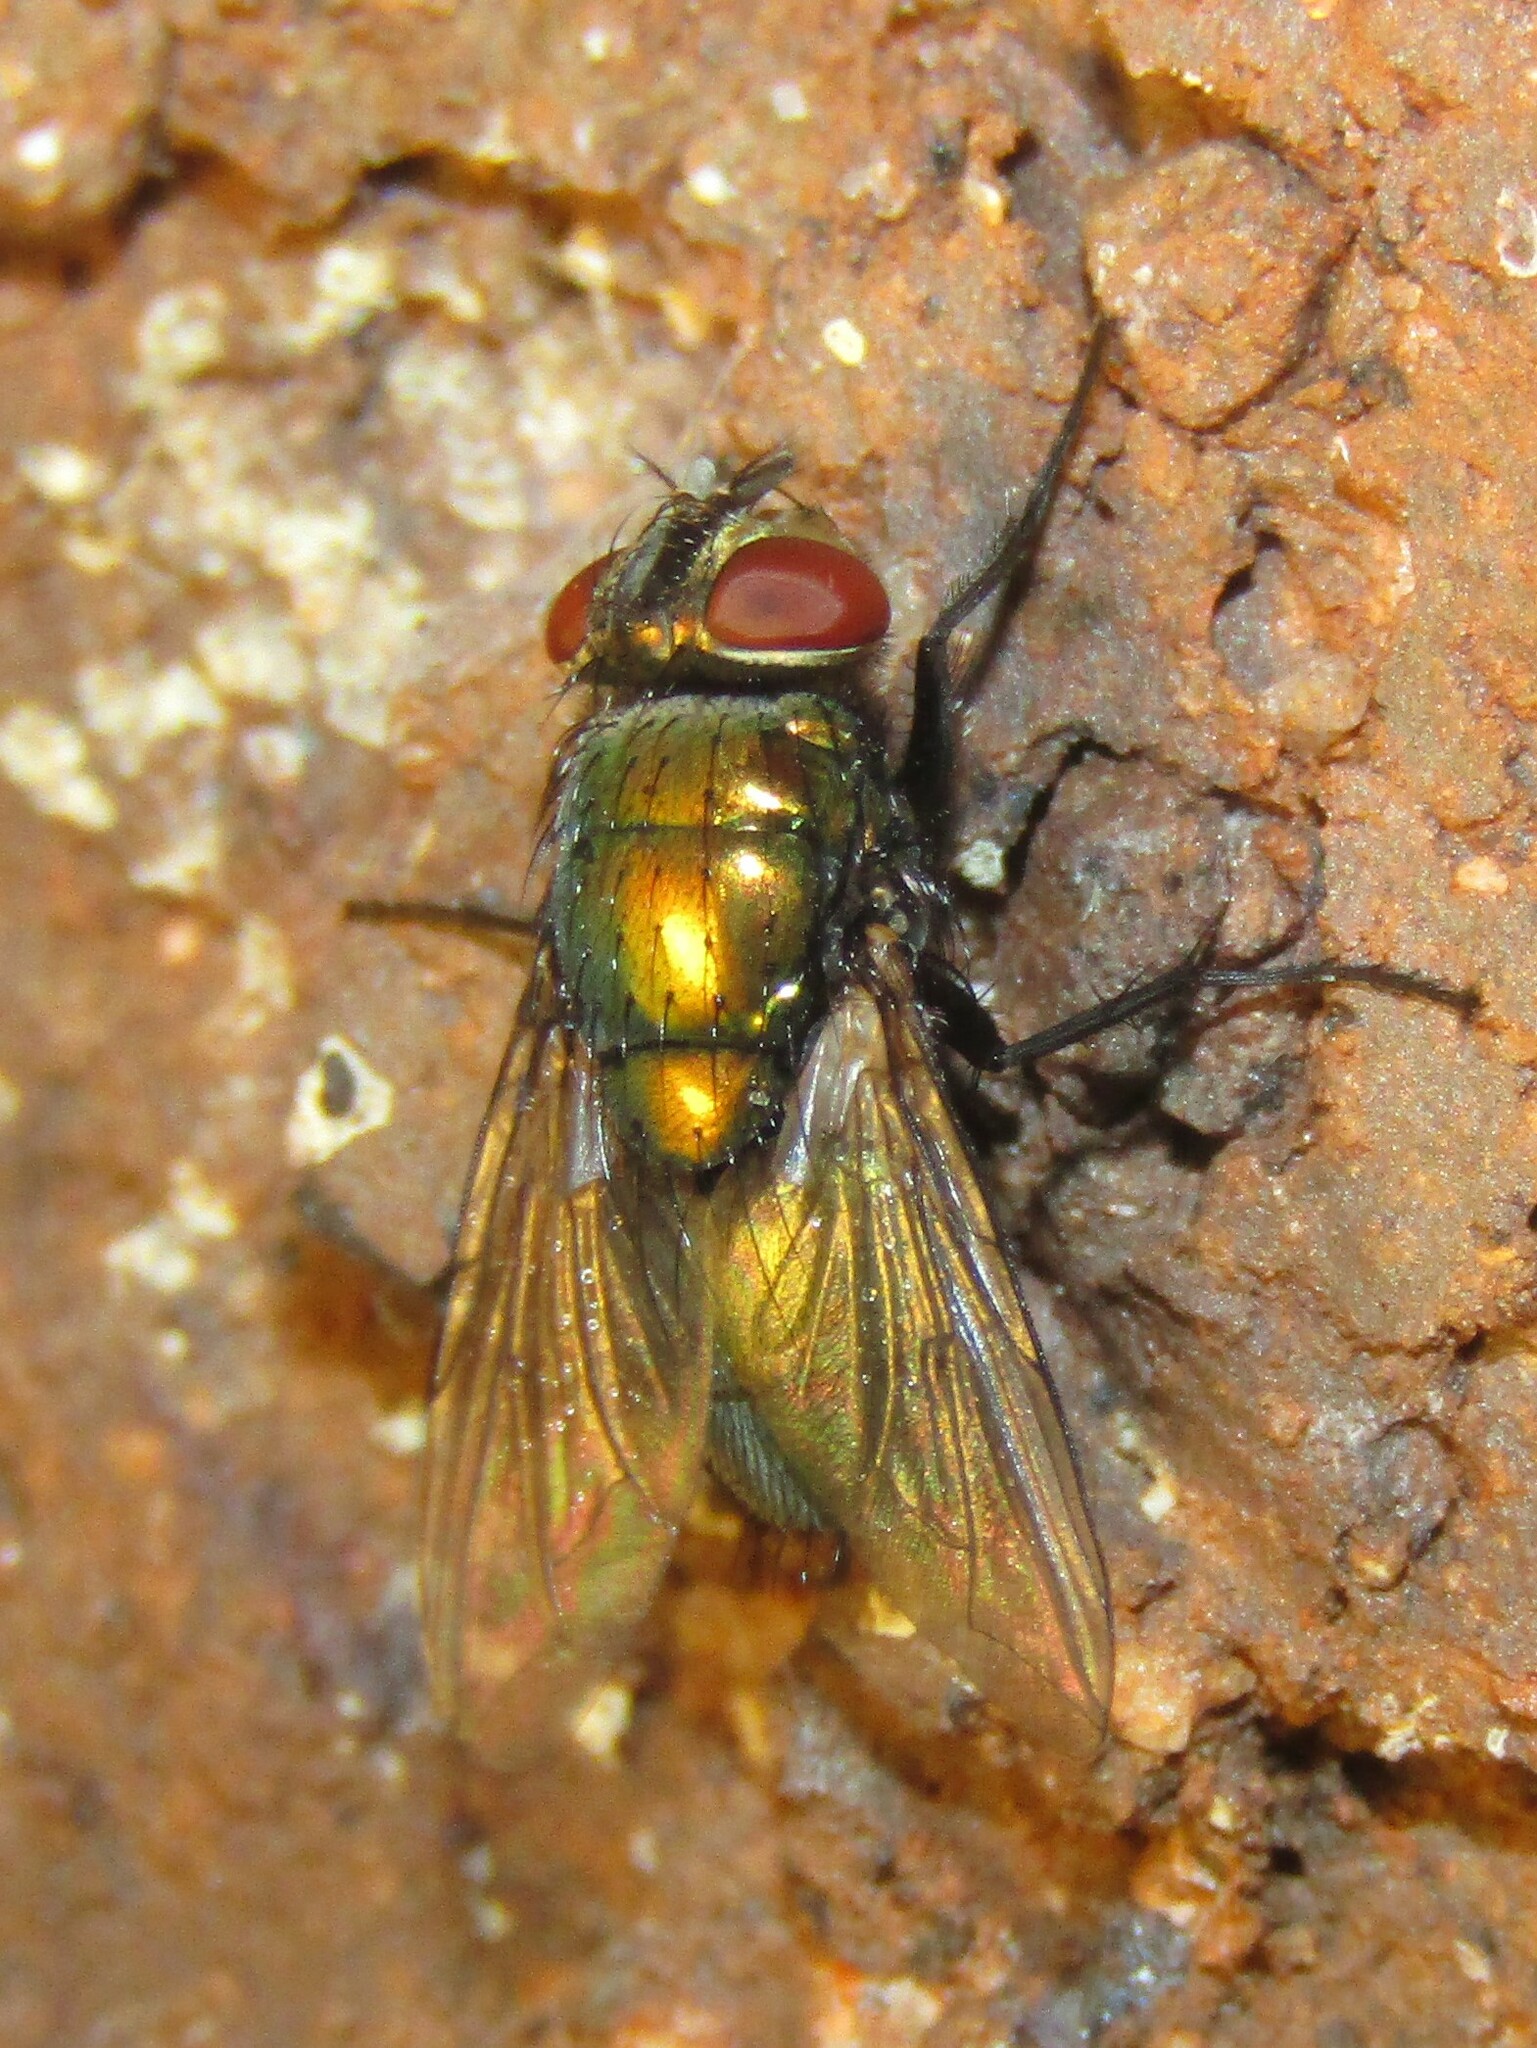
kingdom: Animalia
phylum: Arthropoda
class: Insecta
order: Diptera
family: Calliphoridae
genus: Lucilia
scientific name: Lucilia sericata
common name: Blow fly
